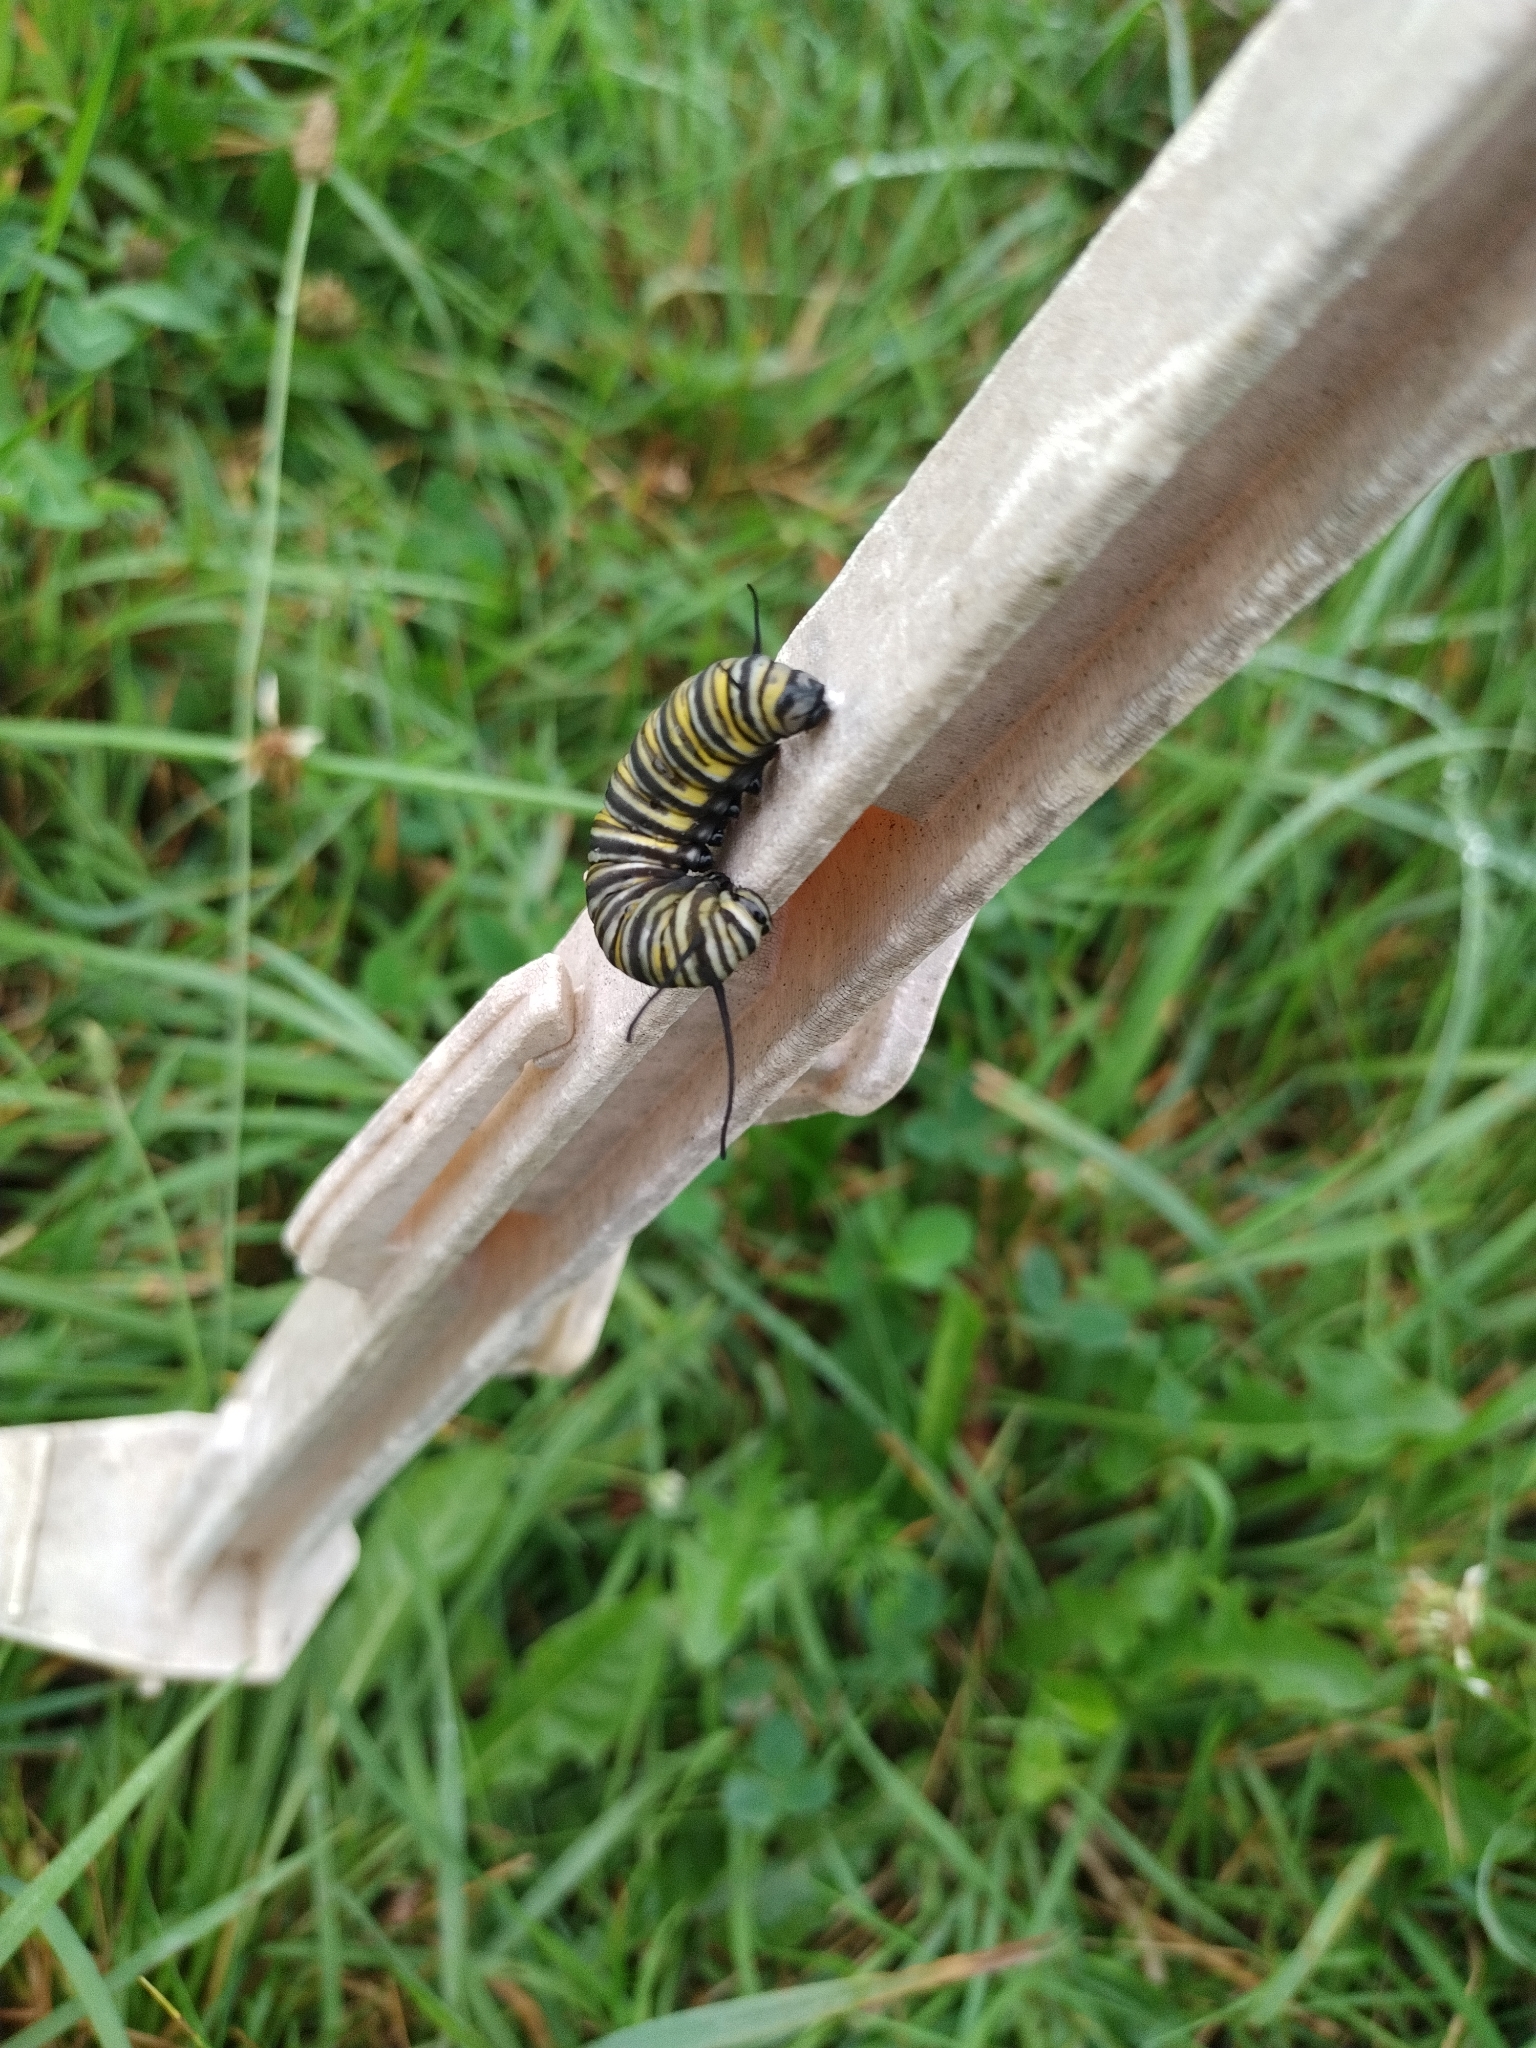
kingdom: Animalia
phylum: Arthropoda
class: Insecta
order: Lepidoptera
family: Nymphalidae
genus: Danaus
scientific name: Danaus plexippus
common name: Monarch
